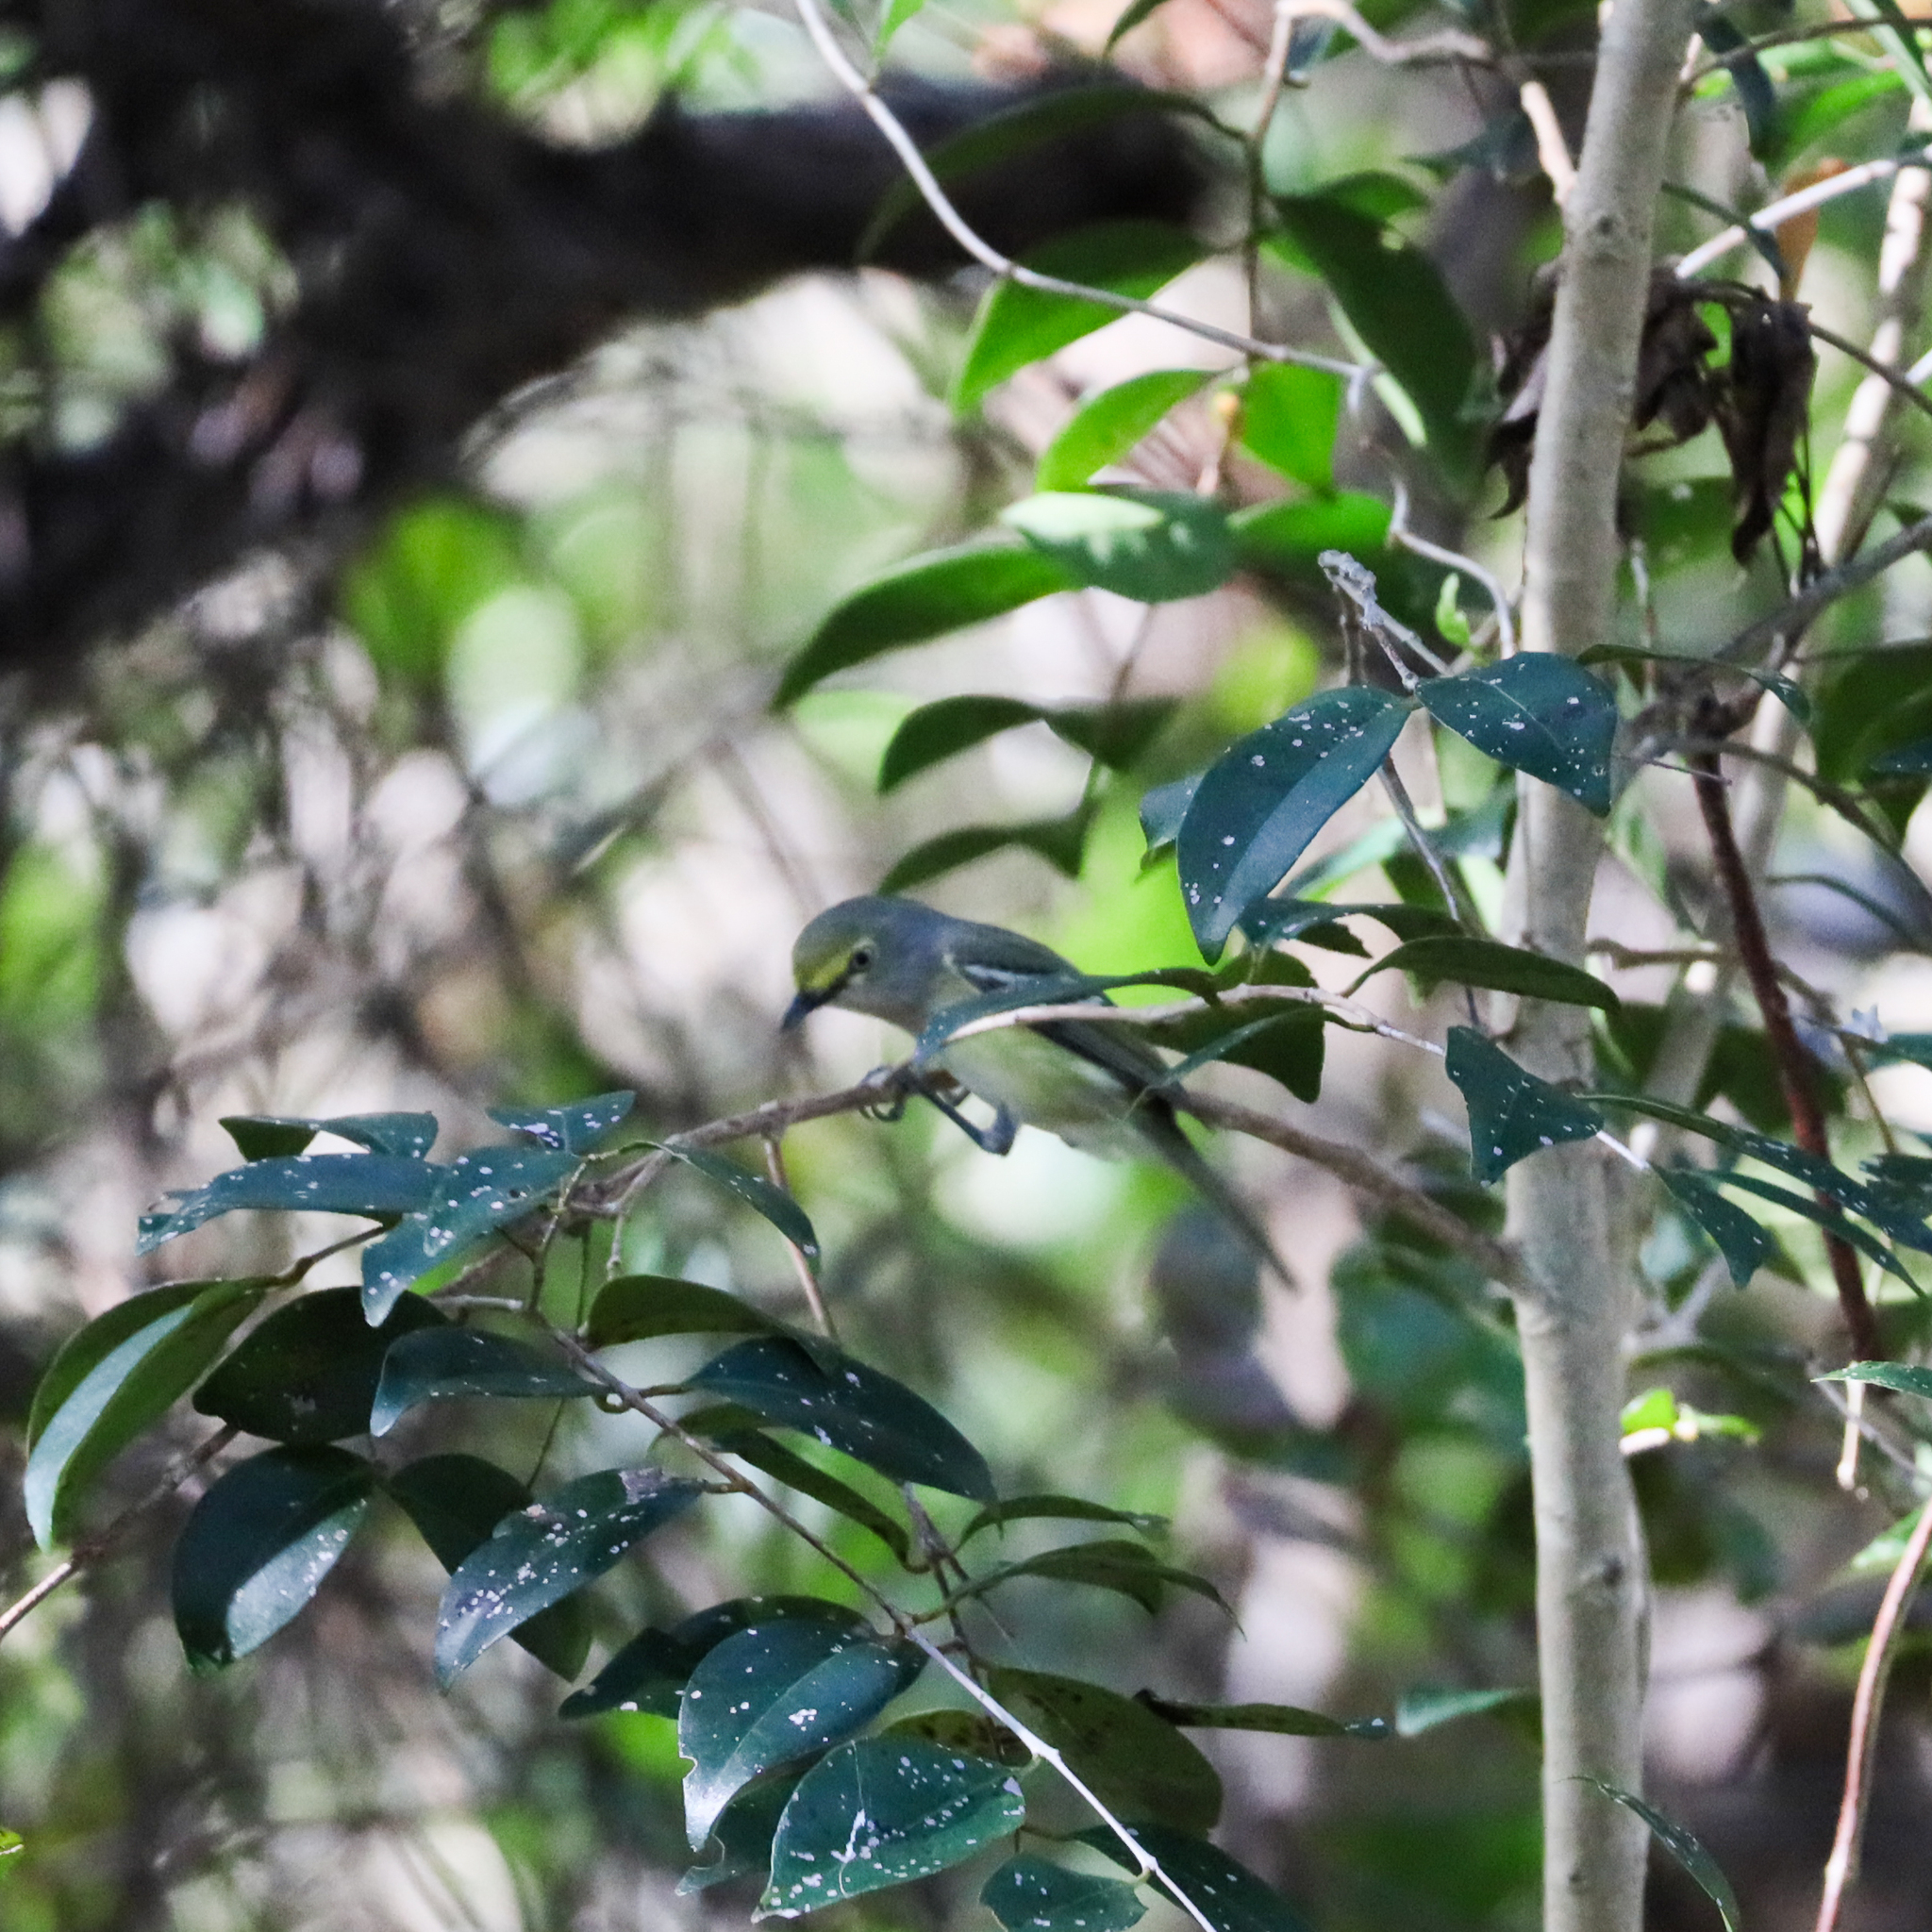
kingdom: Animalia
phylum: Chordata
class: Aves
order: Passeriformes
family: Vireonidae
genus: Vireo
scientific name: Vireo griseus
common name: White-eyed vireo
